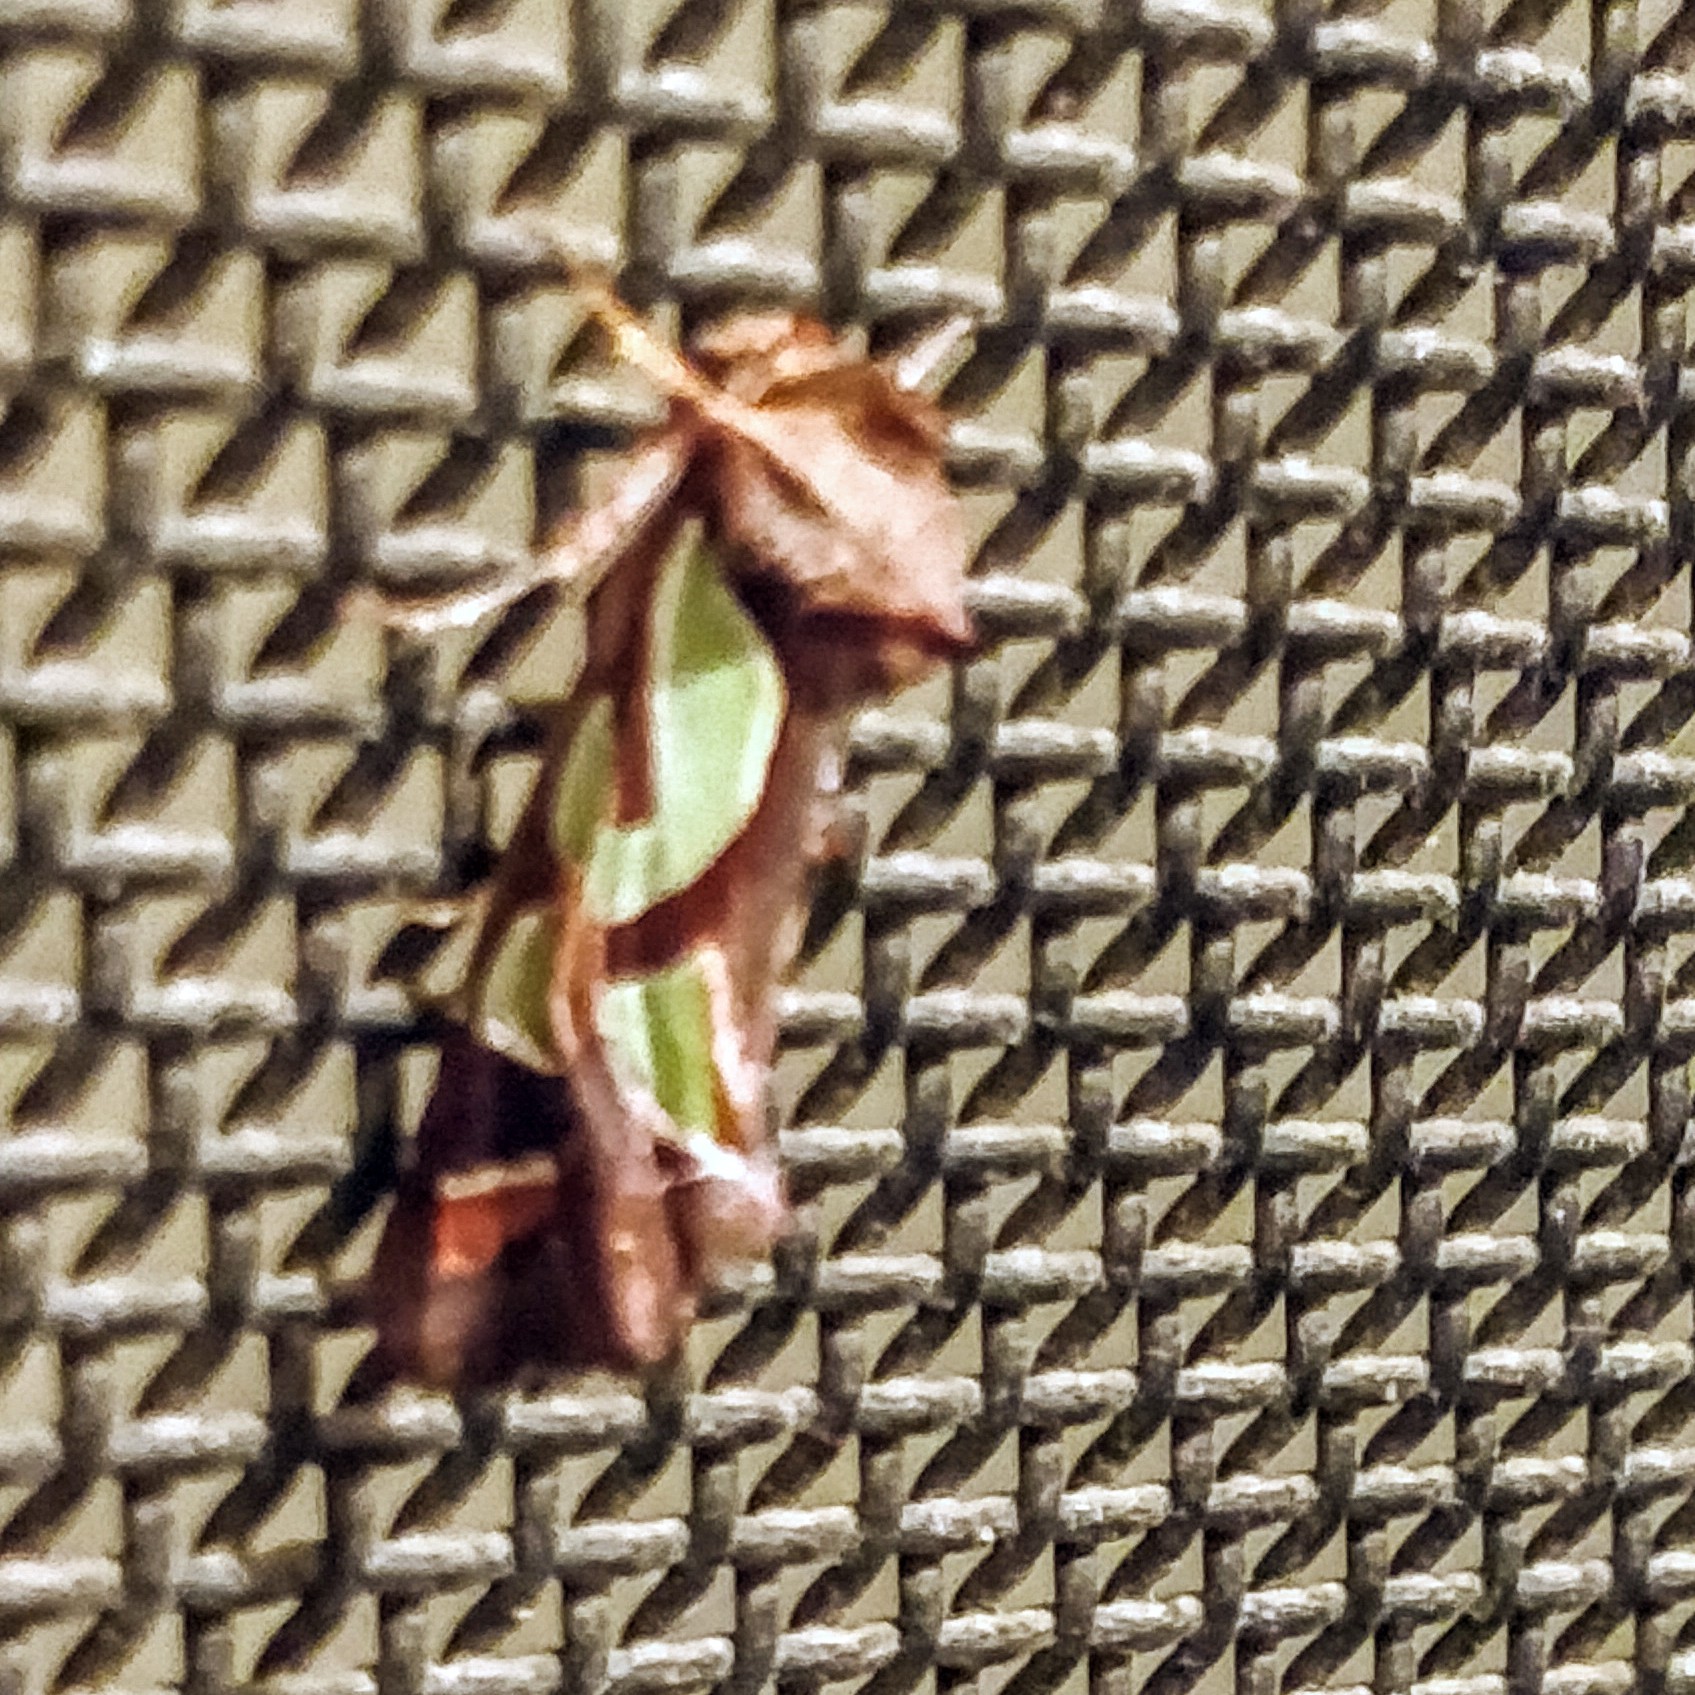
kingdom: Animalia
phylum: Arthropoda
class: Insecta
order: Lepidoptera
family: Noctuidae
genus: Cosmodes
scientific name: Cosmodes elegans
